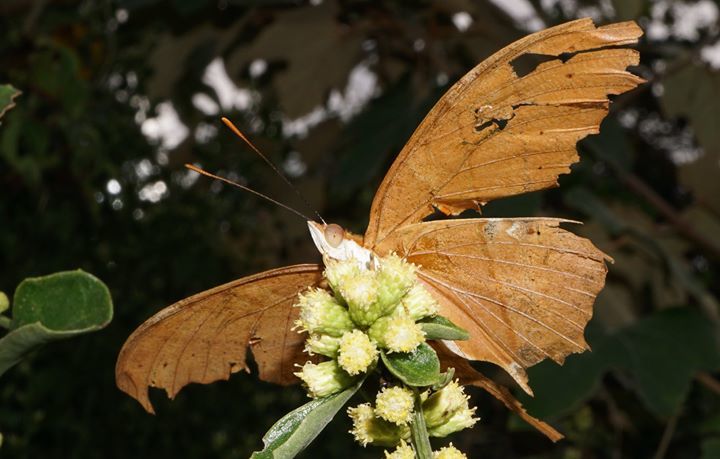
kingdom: Animalia
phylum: Arthropoda
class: Insecta
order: Lepidoptera
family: Nymphalidae
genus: Marpesia
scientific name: Marpesia petreus
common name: Red dagger wing
